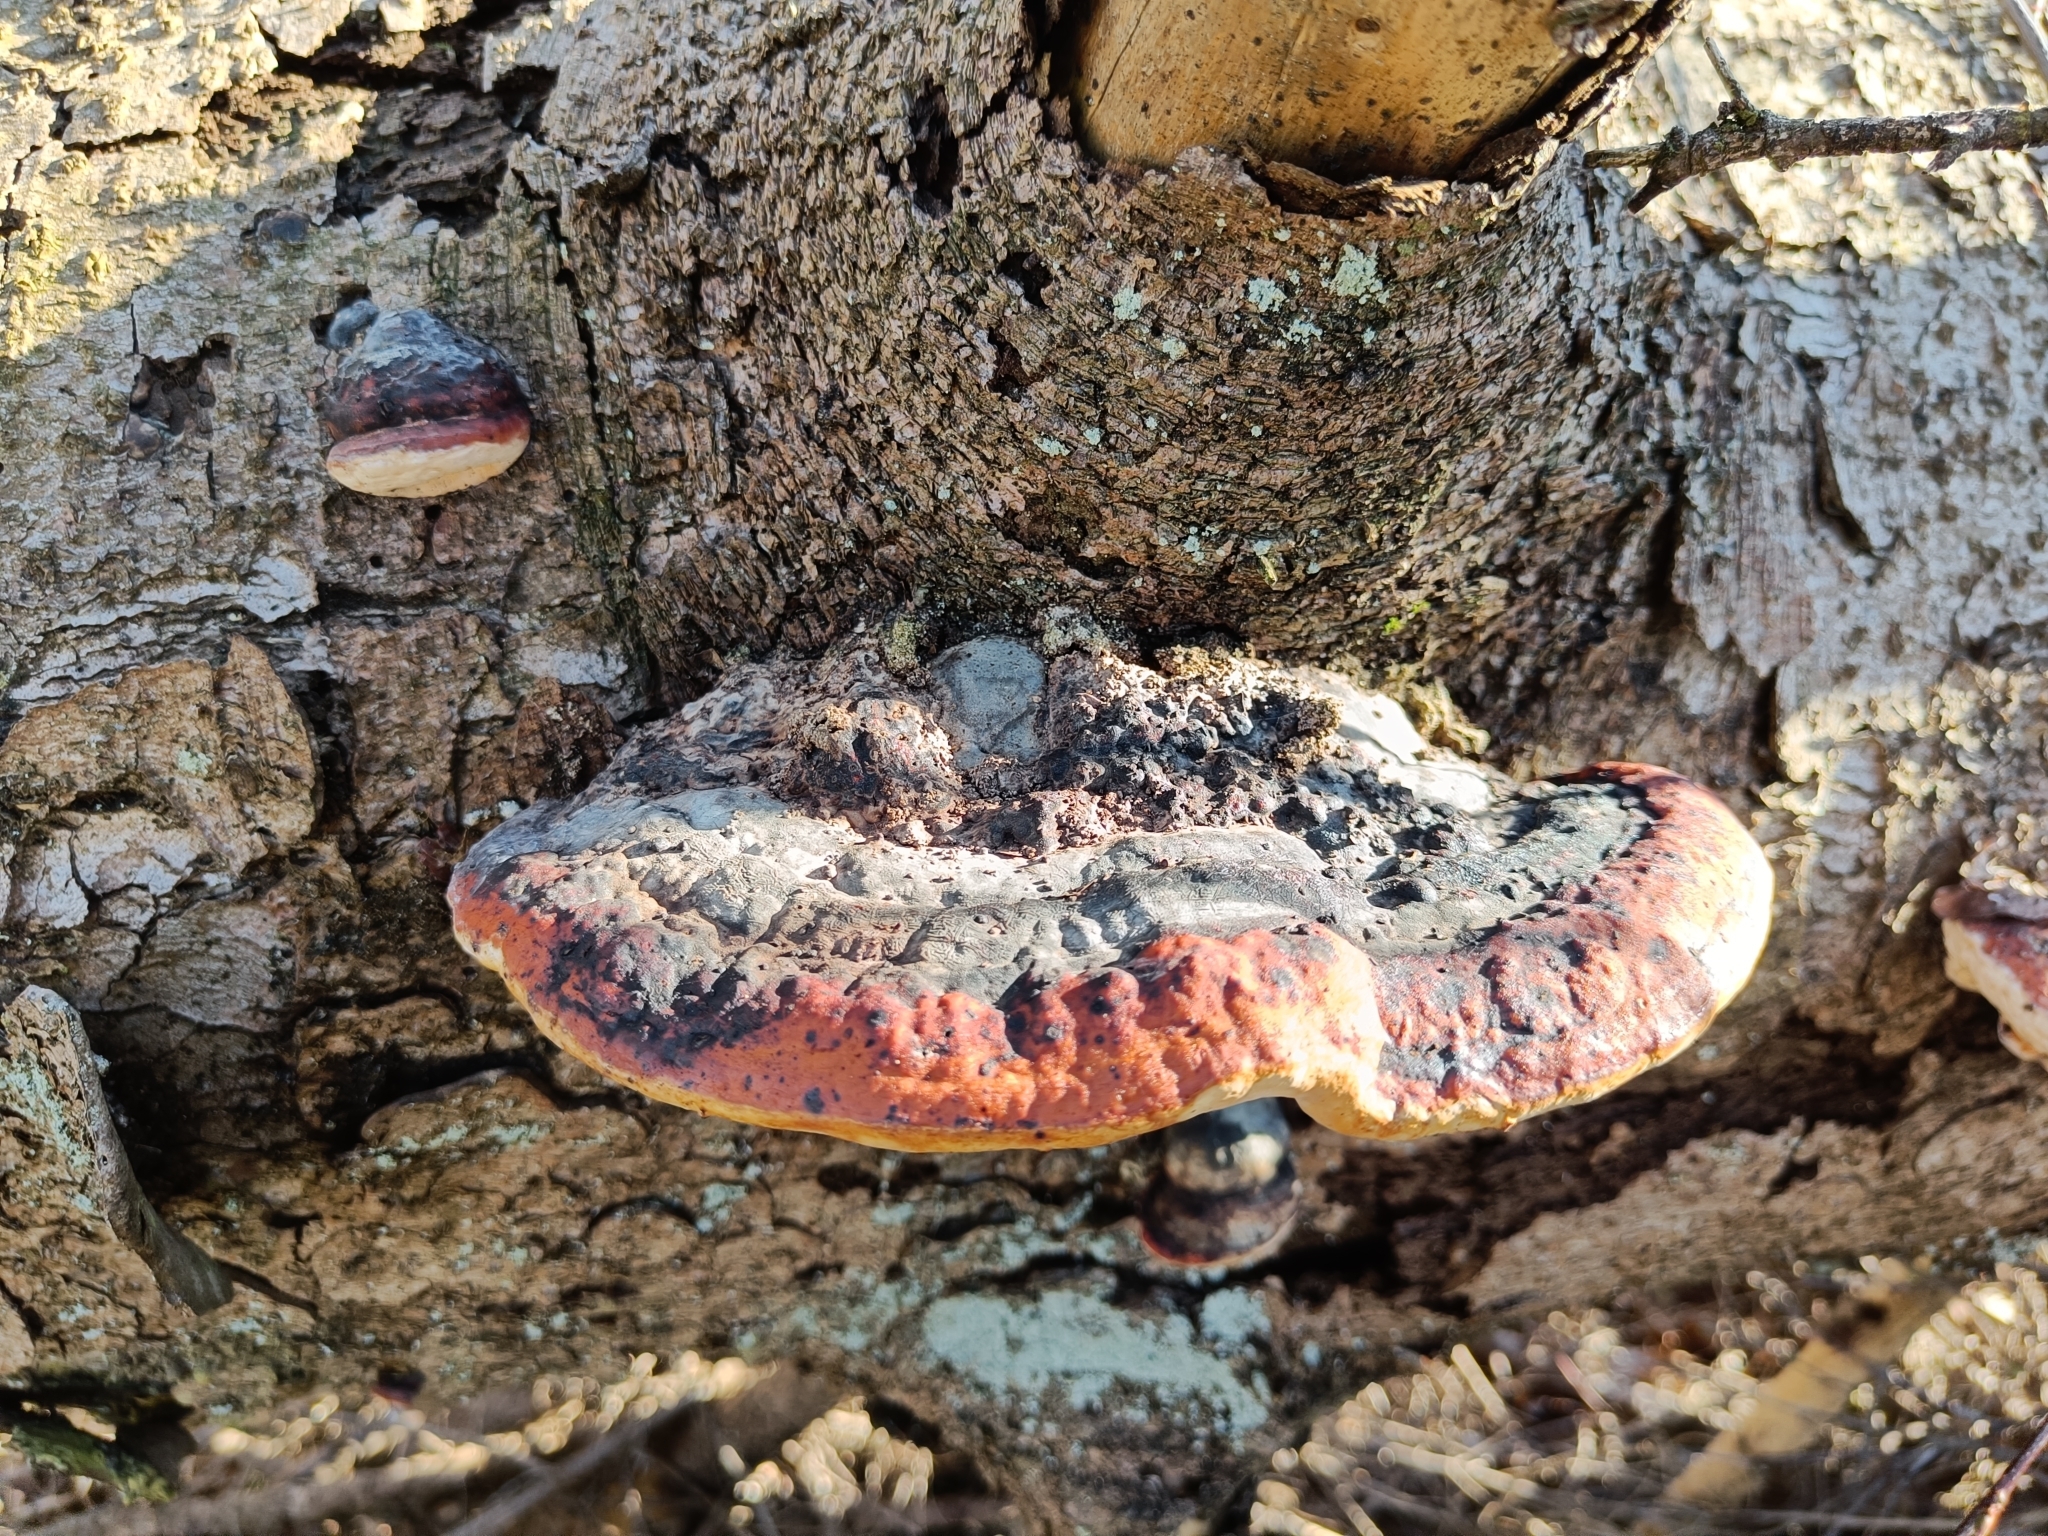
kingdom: Fungi
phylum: Basidiomycota
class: Agaricomycetes
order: Polyporales
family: Fomitopsidaceae
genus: Fomitopsis
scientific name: Fomitopsis pinicola
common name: Red-belted bracket
